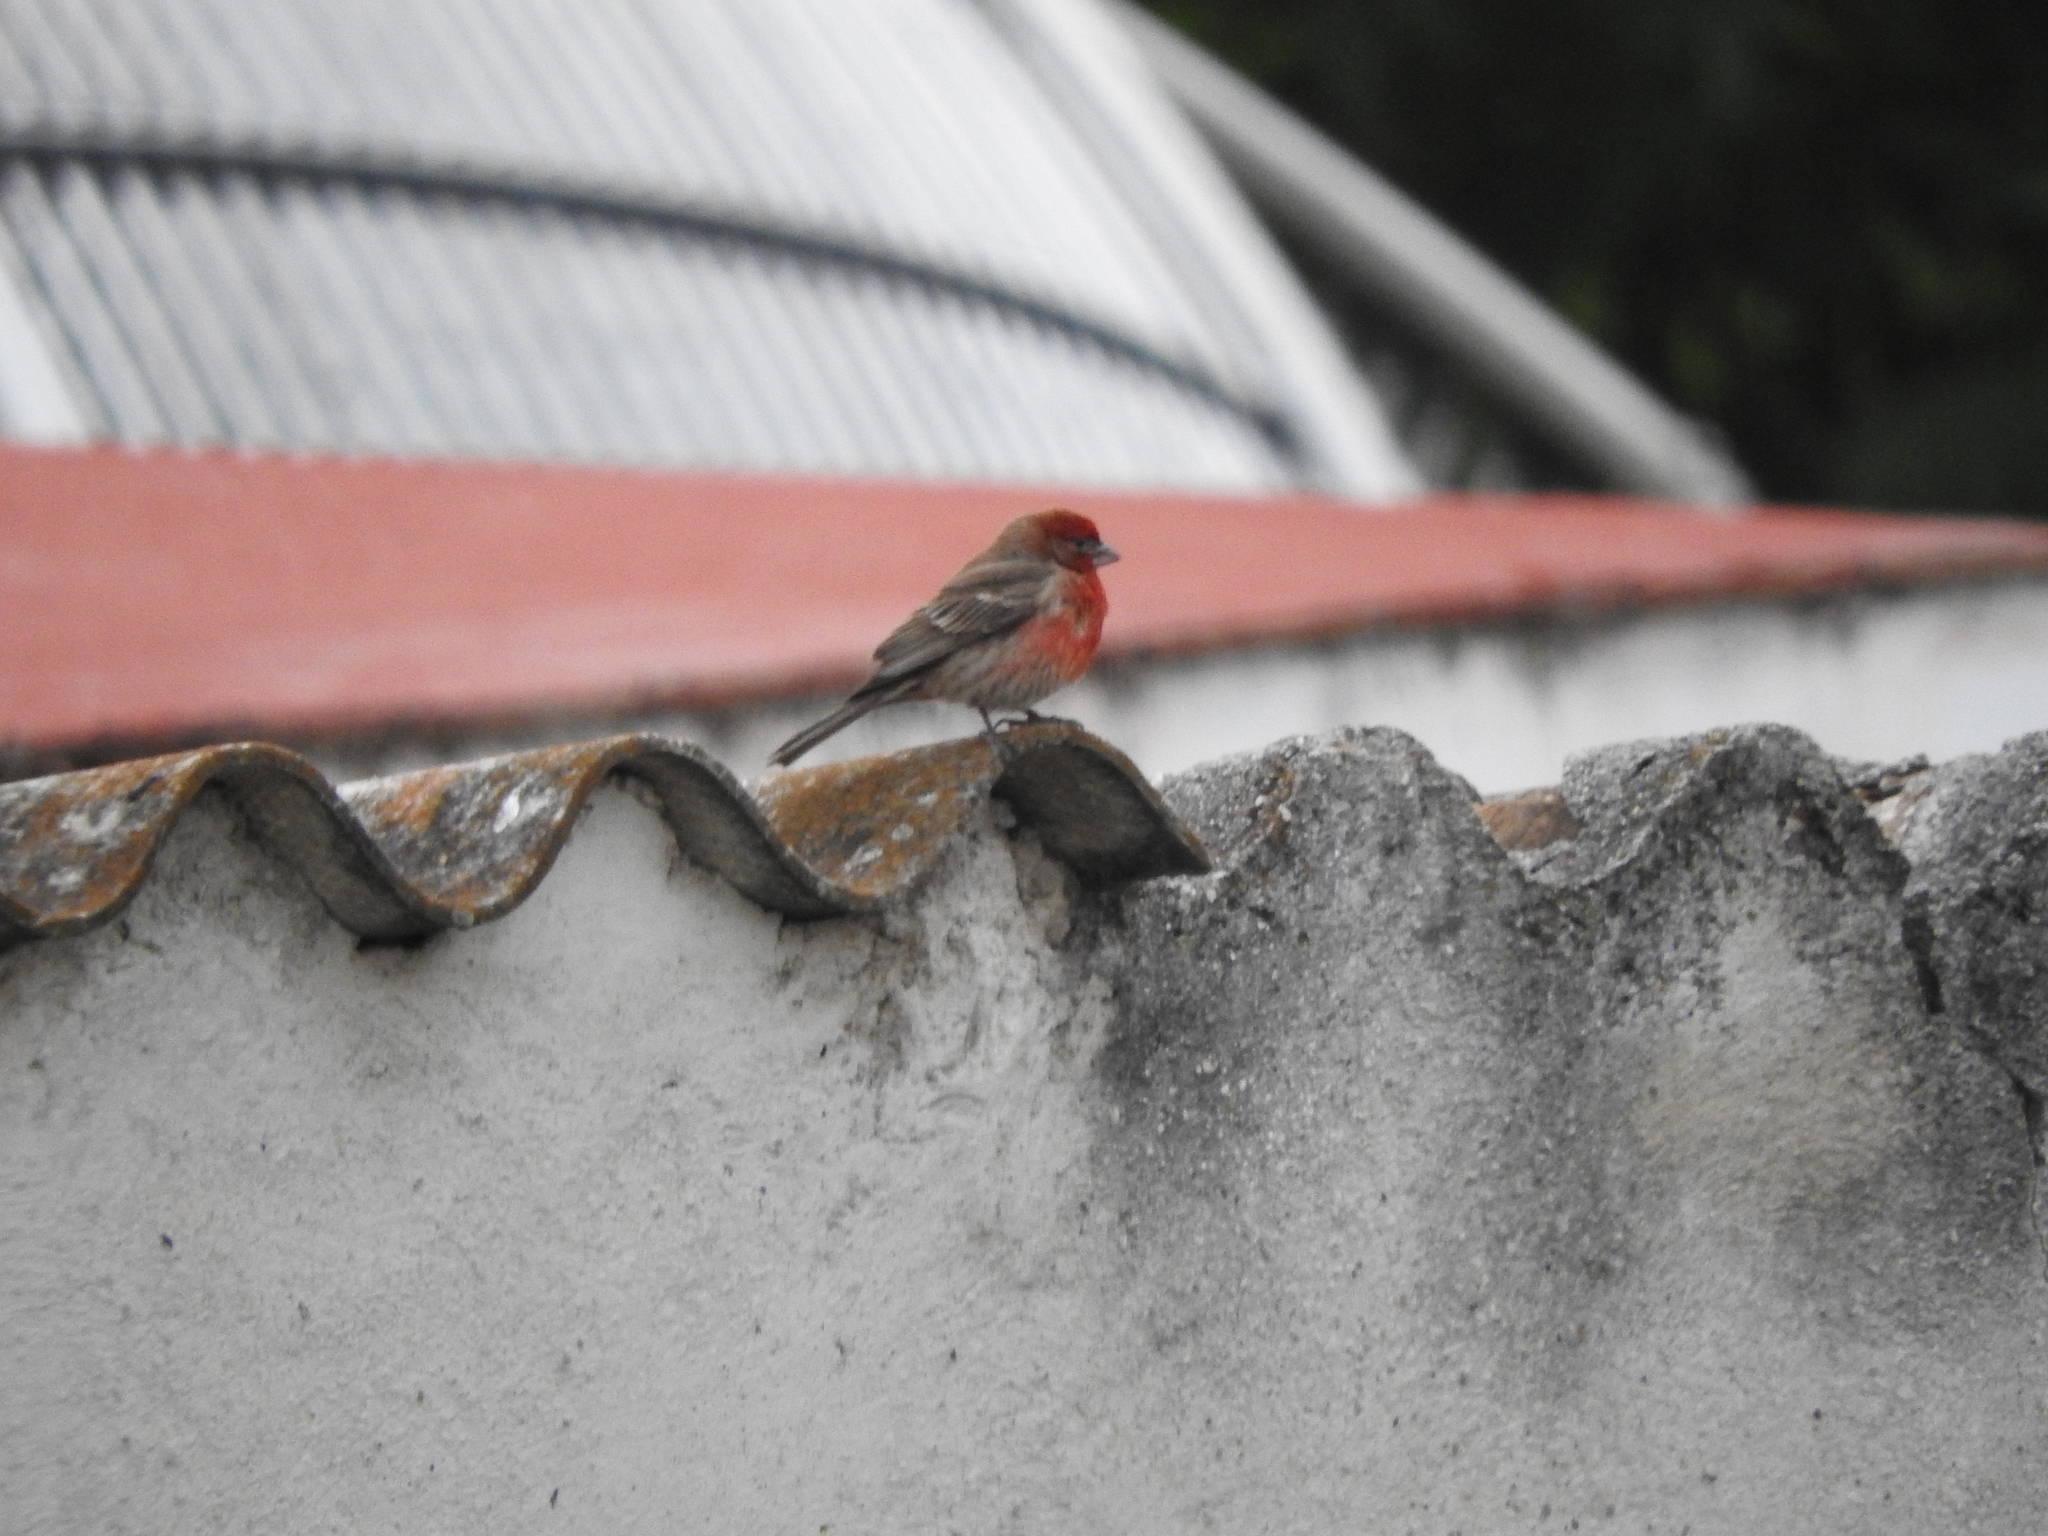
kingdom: Animalia
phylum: Chordata
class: Aves
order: Passeriformes
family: Fringillidae
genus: Haemorhous
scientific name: Haemorhous mexicanus
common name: House finch
